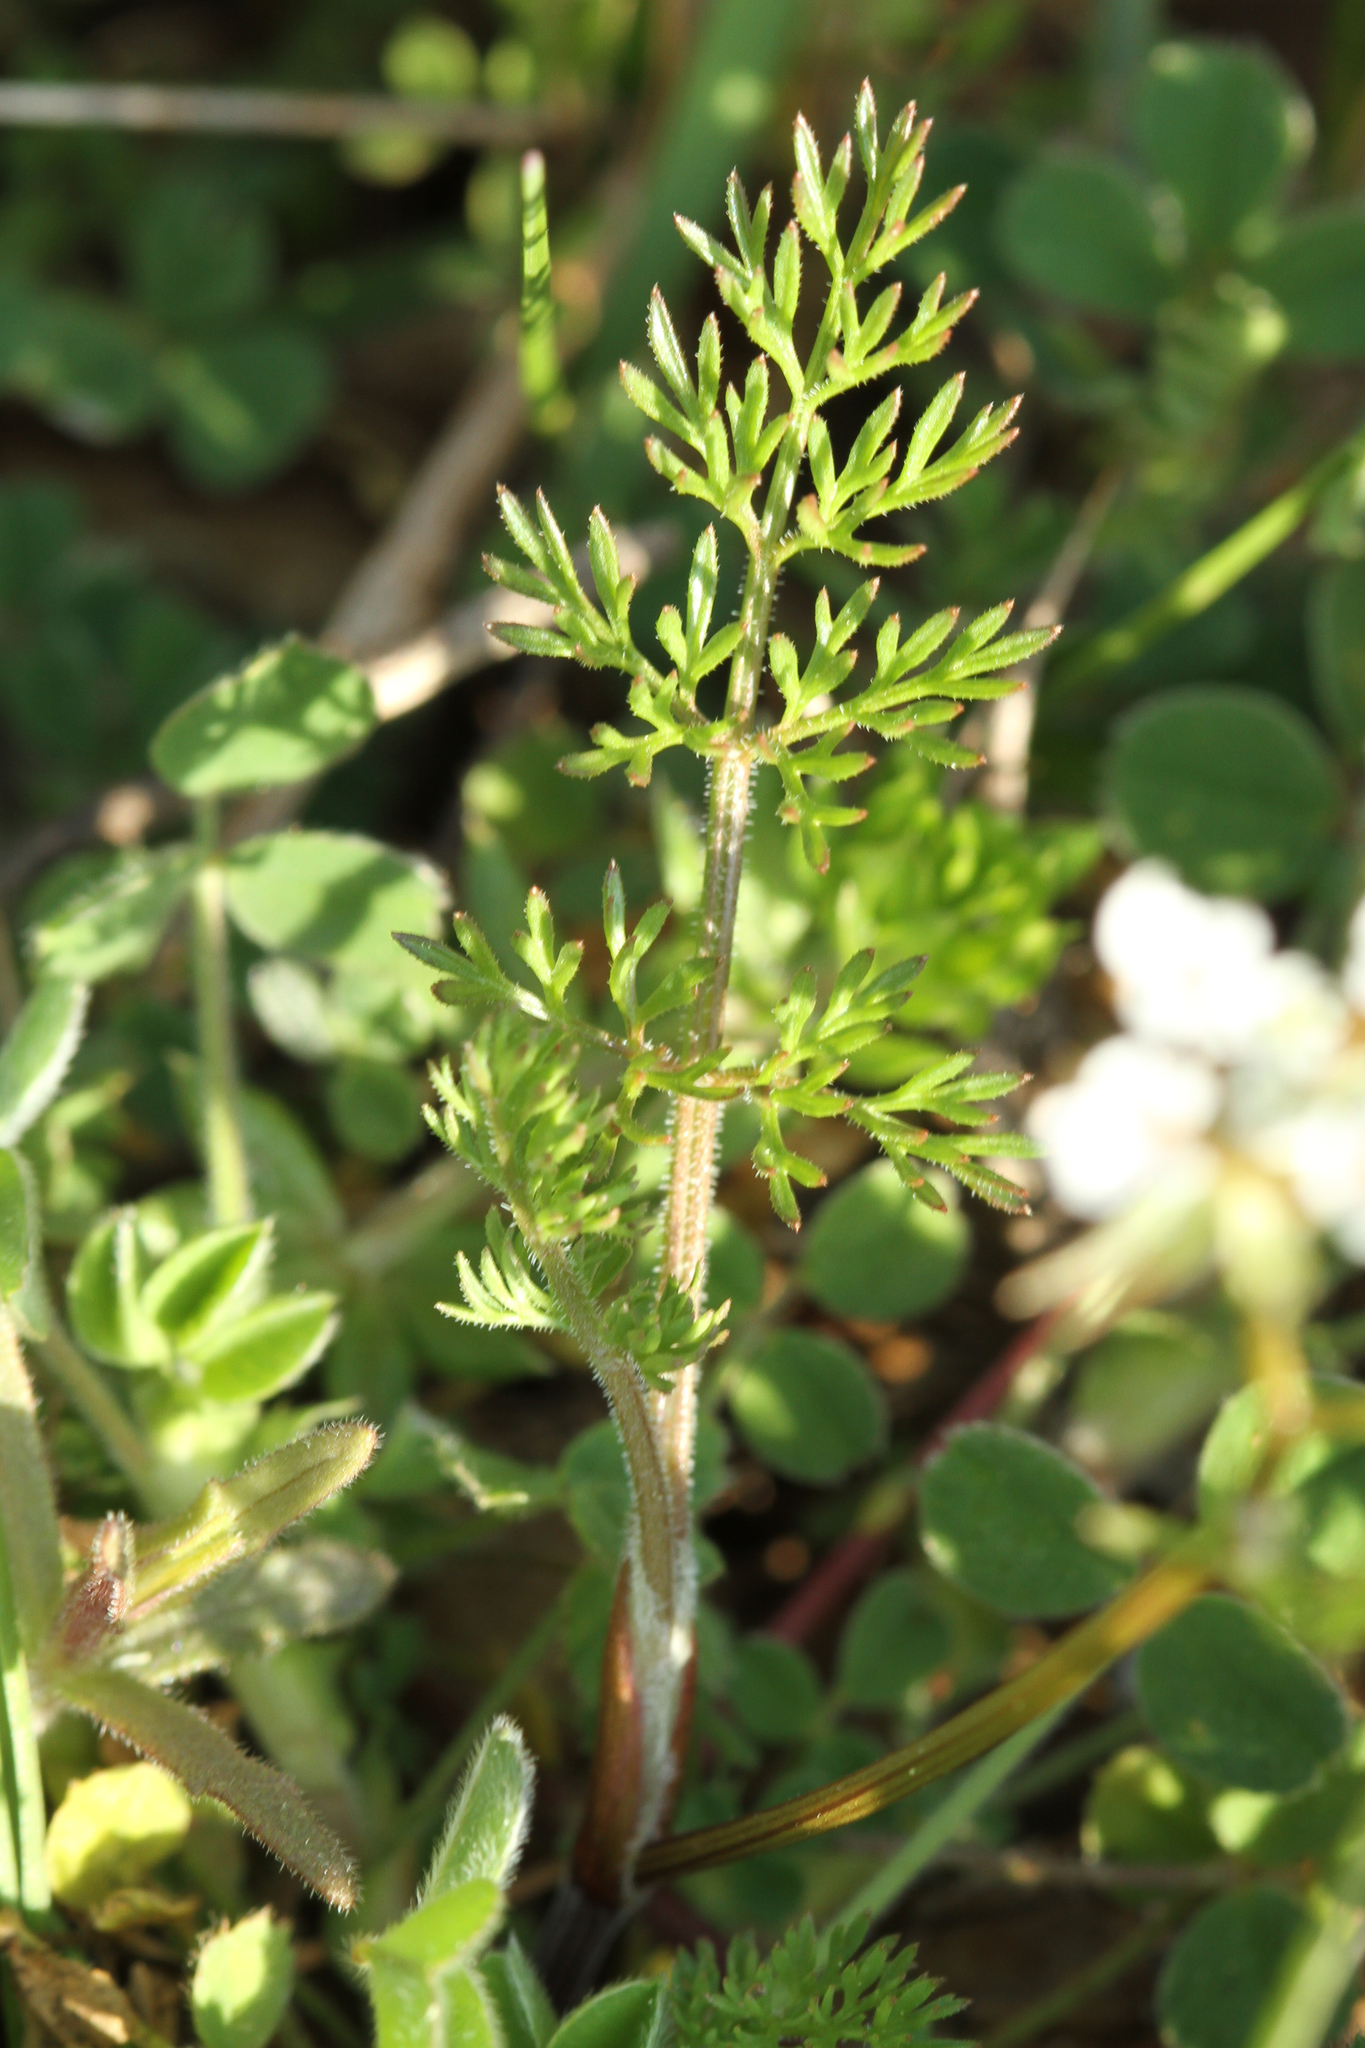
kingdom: Plantae
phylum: Tracheophyta
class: Magnoliopsida
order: Apiales
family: Apiaceae
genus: Scandix
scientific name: Scandix pecten-veneris
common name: Shepherd's-needle
